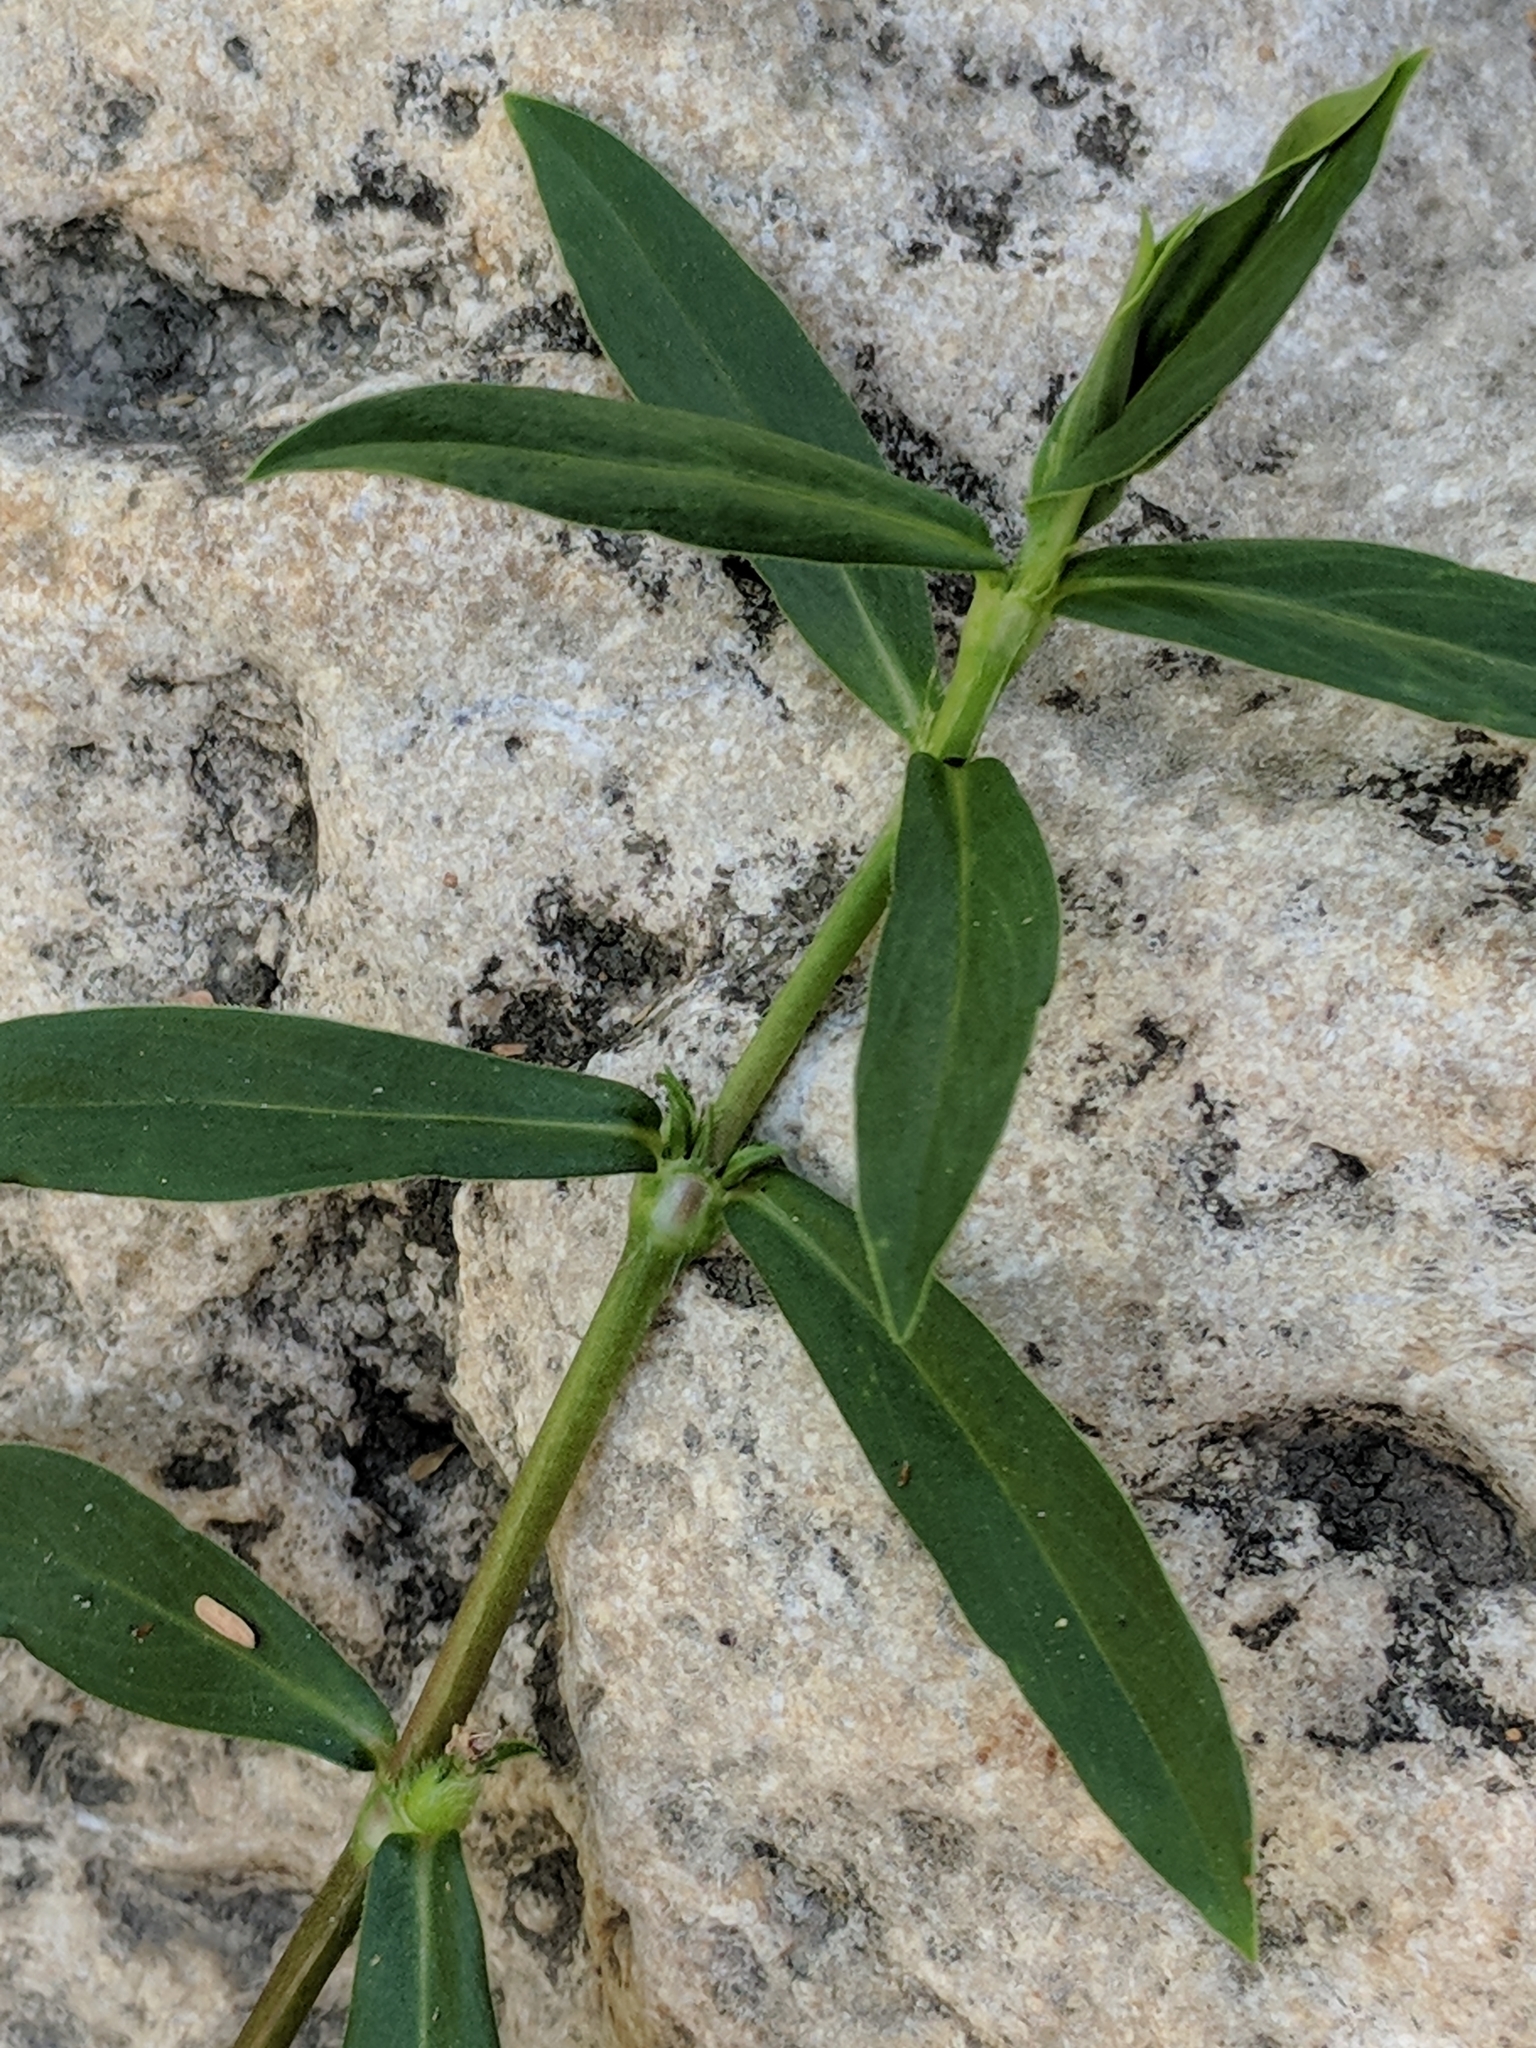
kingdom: Plantae
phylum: Tracheophyta
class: Magnoliopsida
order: Gentianales
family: Rubiaceae
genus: Diodia
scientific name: Diodia virginiana
